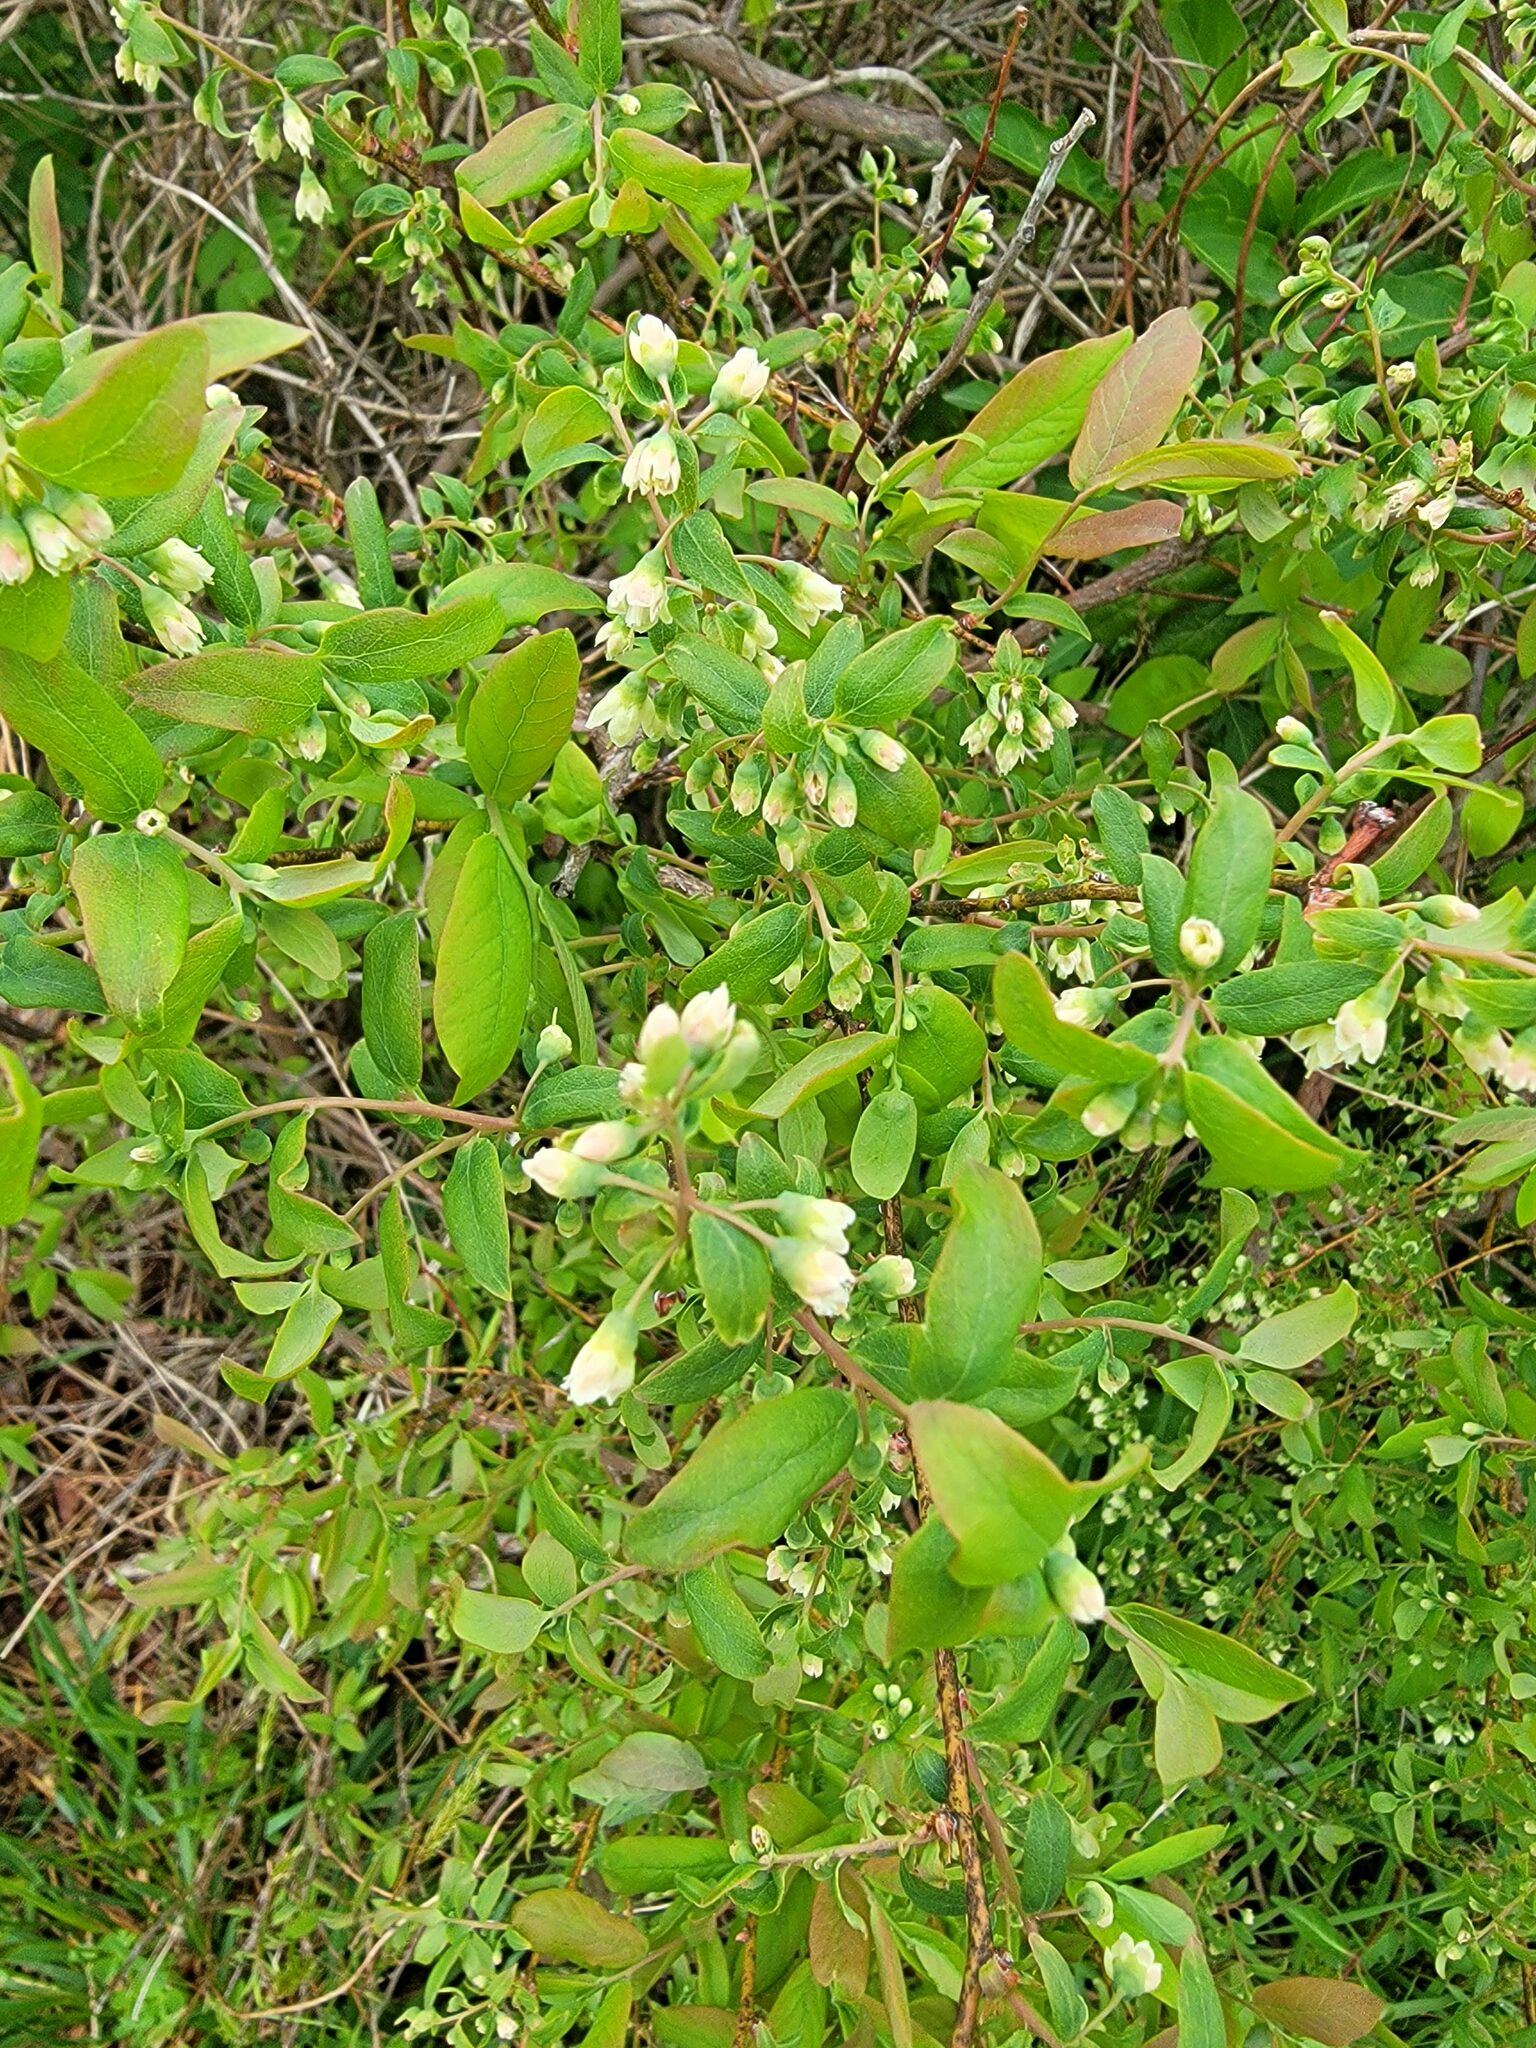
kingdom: Plantae
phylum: Tracheophyta
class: Magnoliopsida
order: Ericales
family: Ericaceae
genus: Vaccinium
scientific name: Vaccinium stamineum
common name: Deerberry
